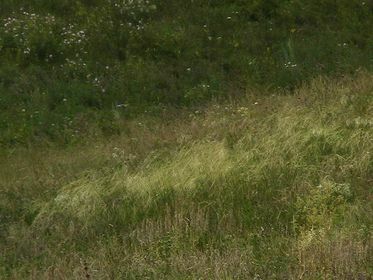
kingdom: Plantae
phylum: Tracheophyta
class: Liliopsida
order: Poales
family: Poaceae
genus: Stipa
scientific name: Stipa capillata
